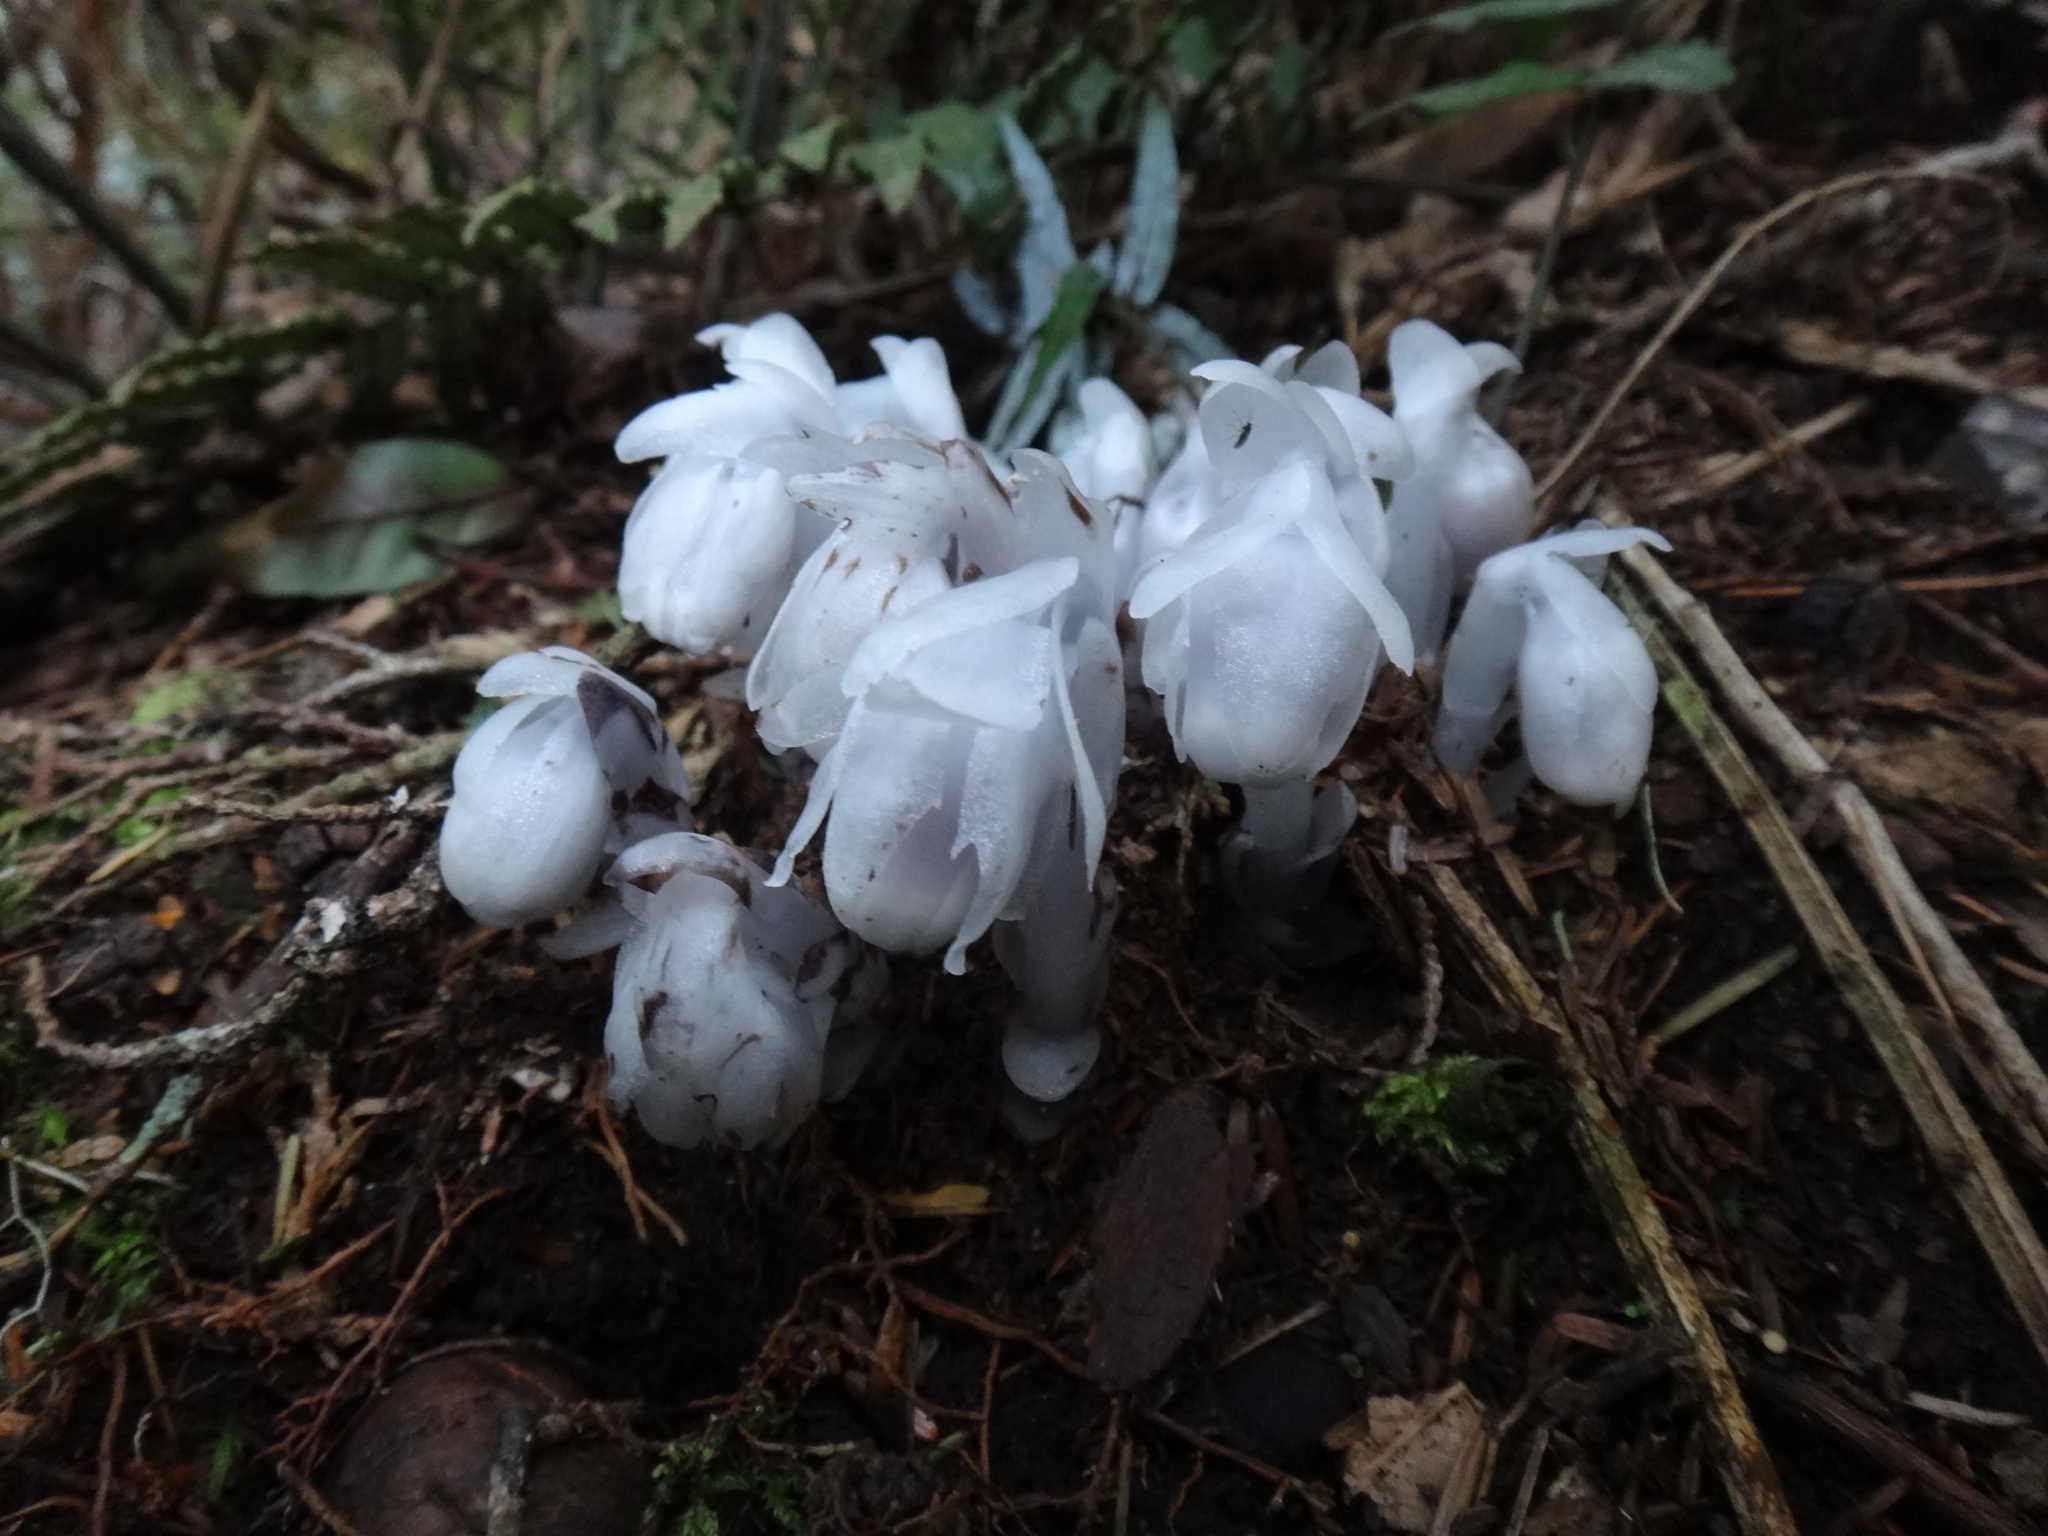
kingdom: Plantae
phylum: Tracheophyta
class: Magnoliopsida
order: Ericales
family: Ericaceae
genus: Monotropastrum
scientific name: Monotropastrum humile
